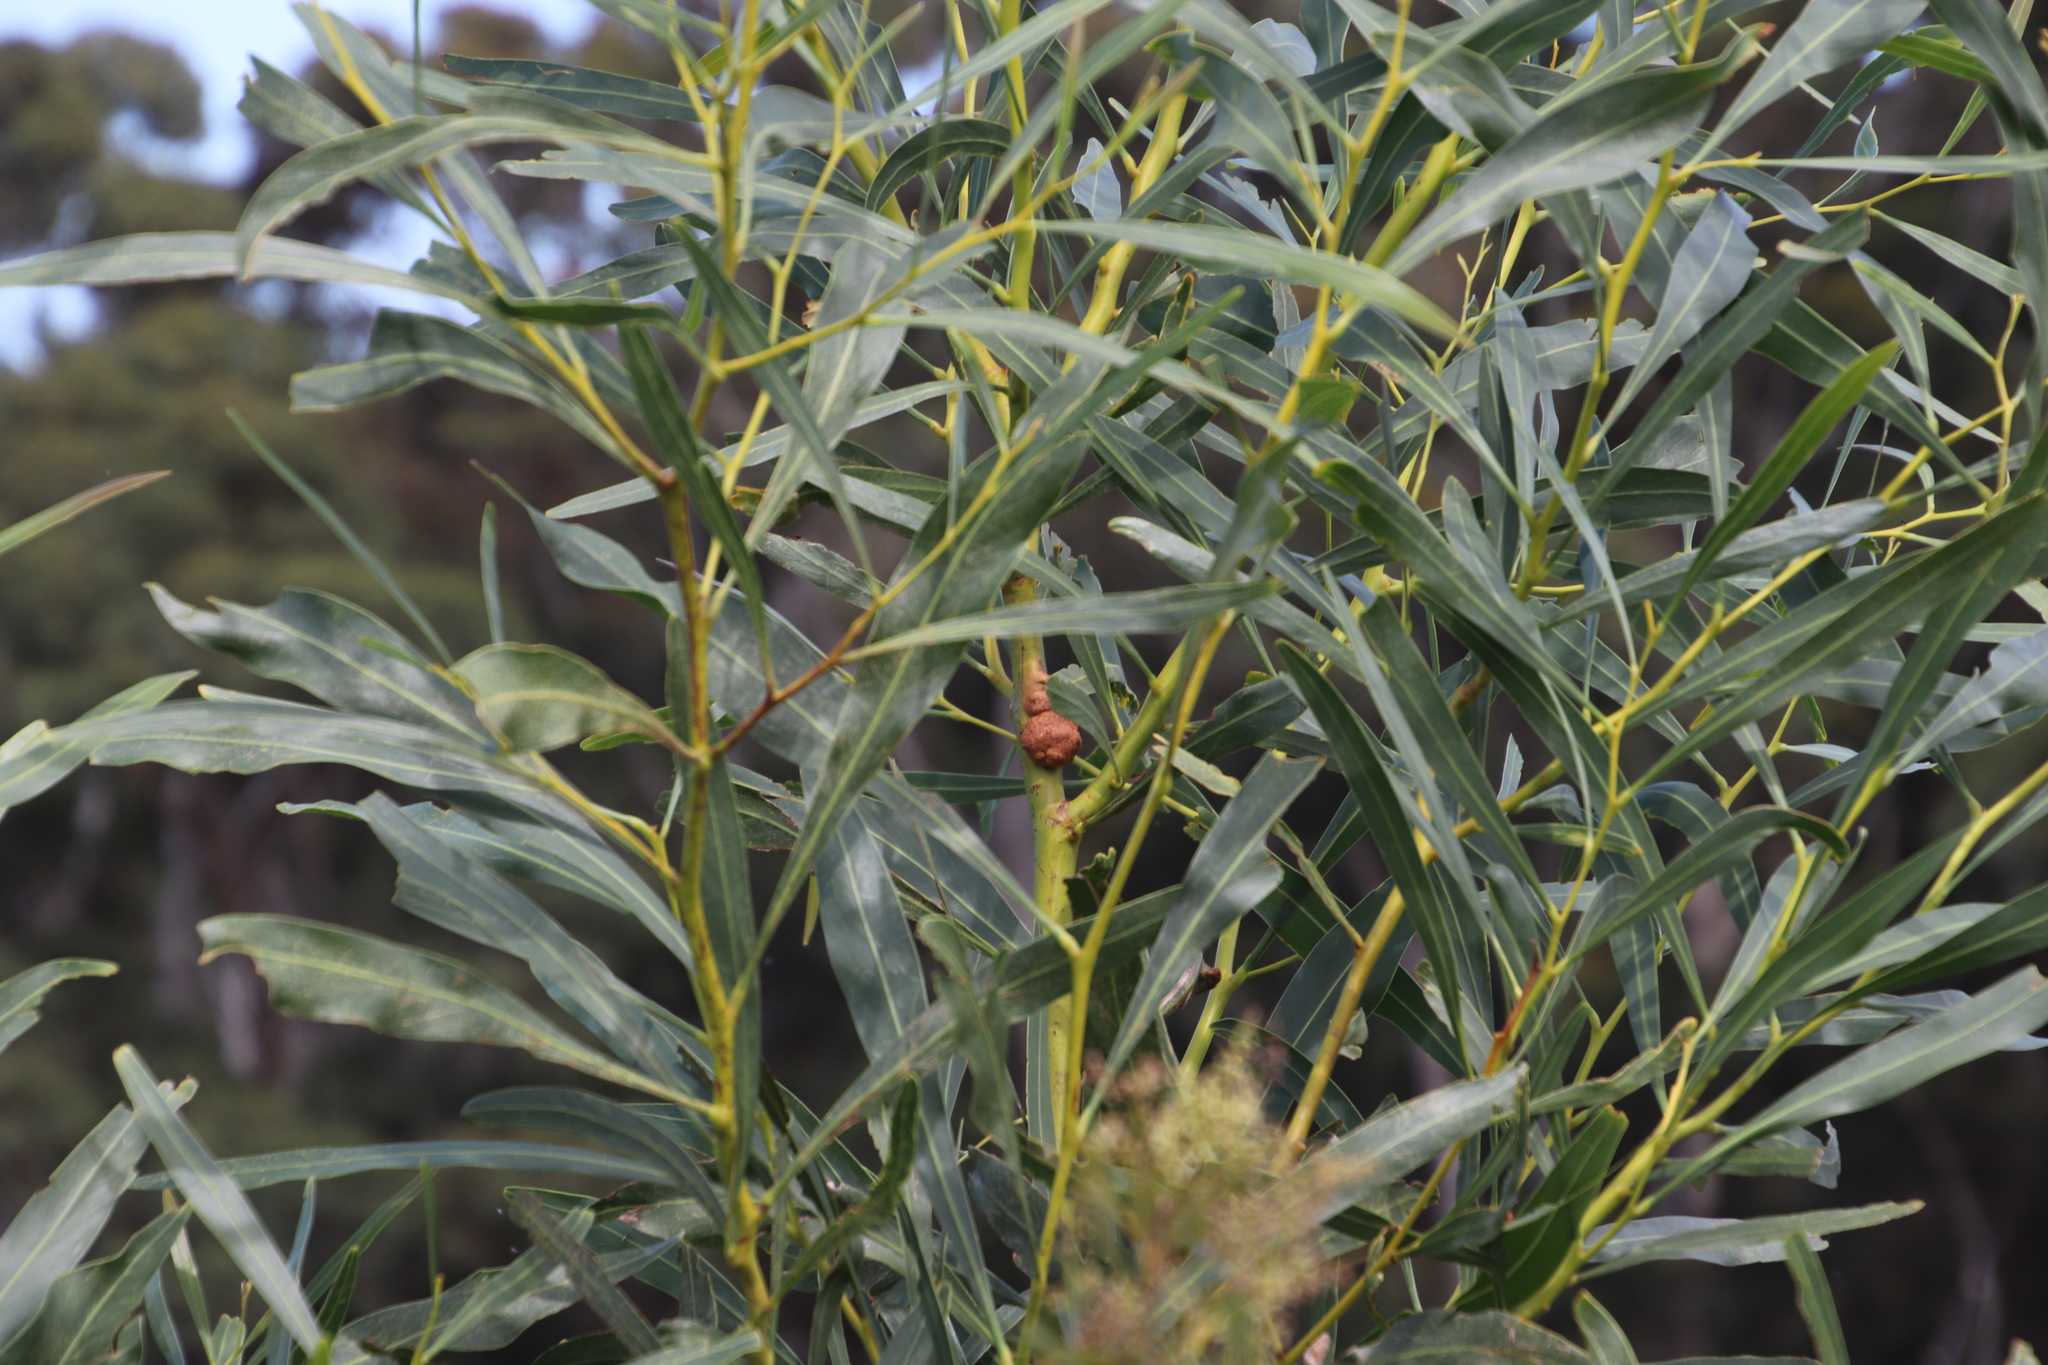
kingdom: Fungi
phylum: Basidiomycota
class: Pucciniomycetes
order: Pucciniales
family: Uromycladiaceae
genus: Uromycladium
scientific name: Uromycladium morrisii
